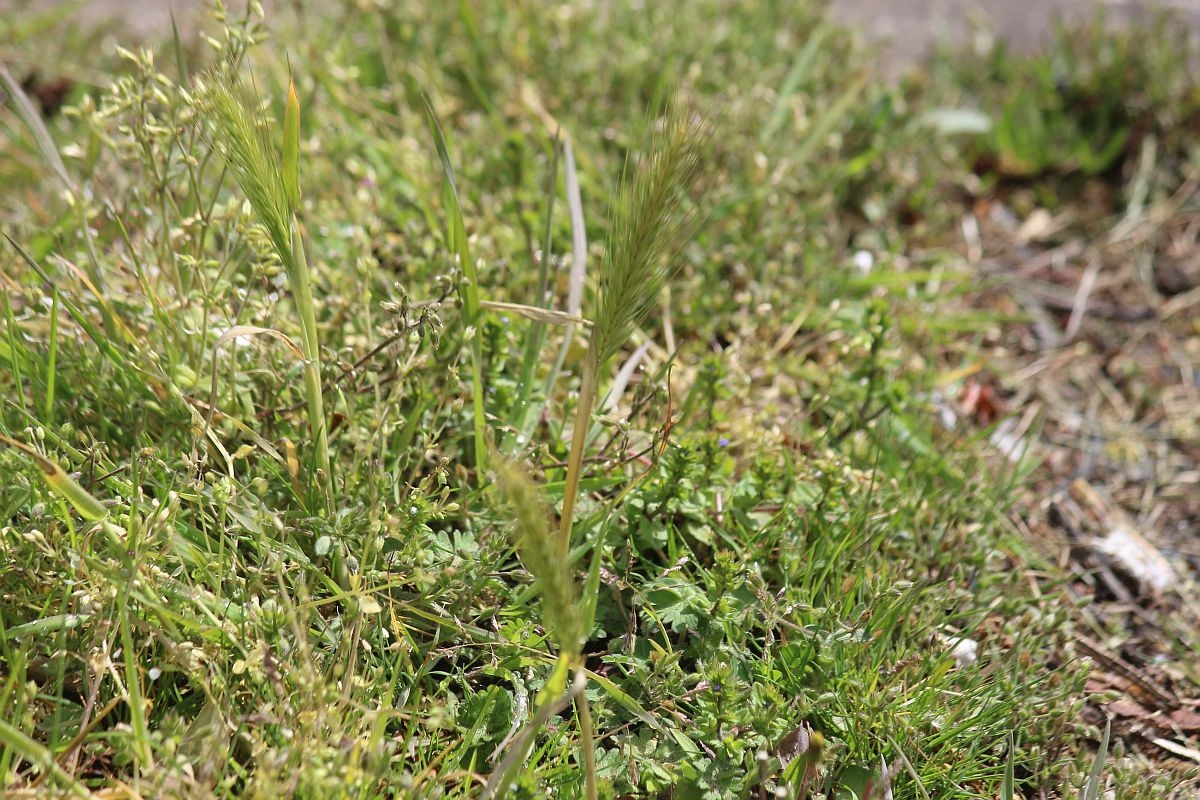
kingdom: Plantae
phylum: Tracheophyta
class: Liliopsida
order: Poales
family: Poaceae
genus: Hordeum
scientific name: Hordeum murinum
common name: Wall barley
